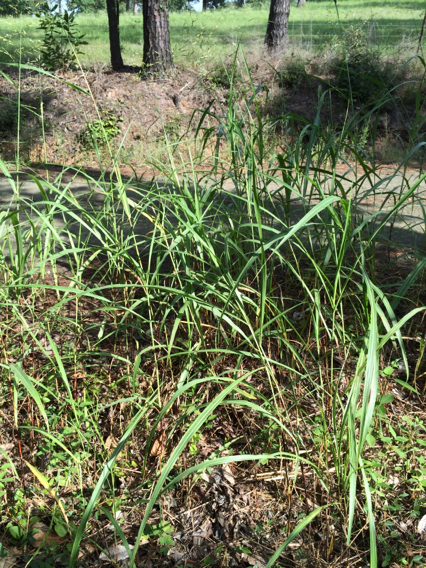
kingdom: Plantae
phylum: Tracheophyta
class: Liliopsida
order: Poales
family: Poaceae
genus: Sorghum
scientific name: Sorghum halepense
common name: Johnson-grass
